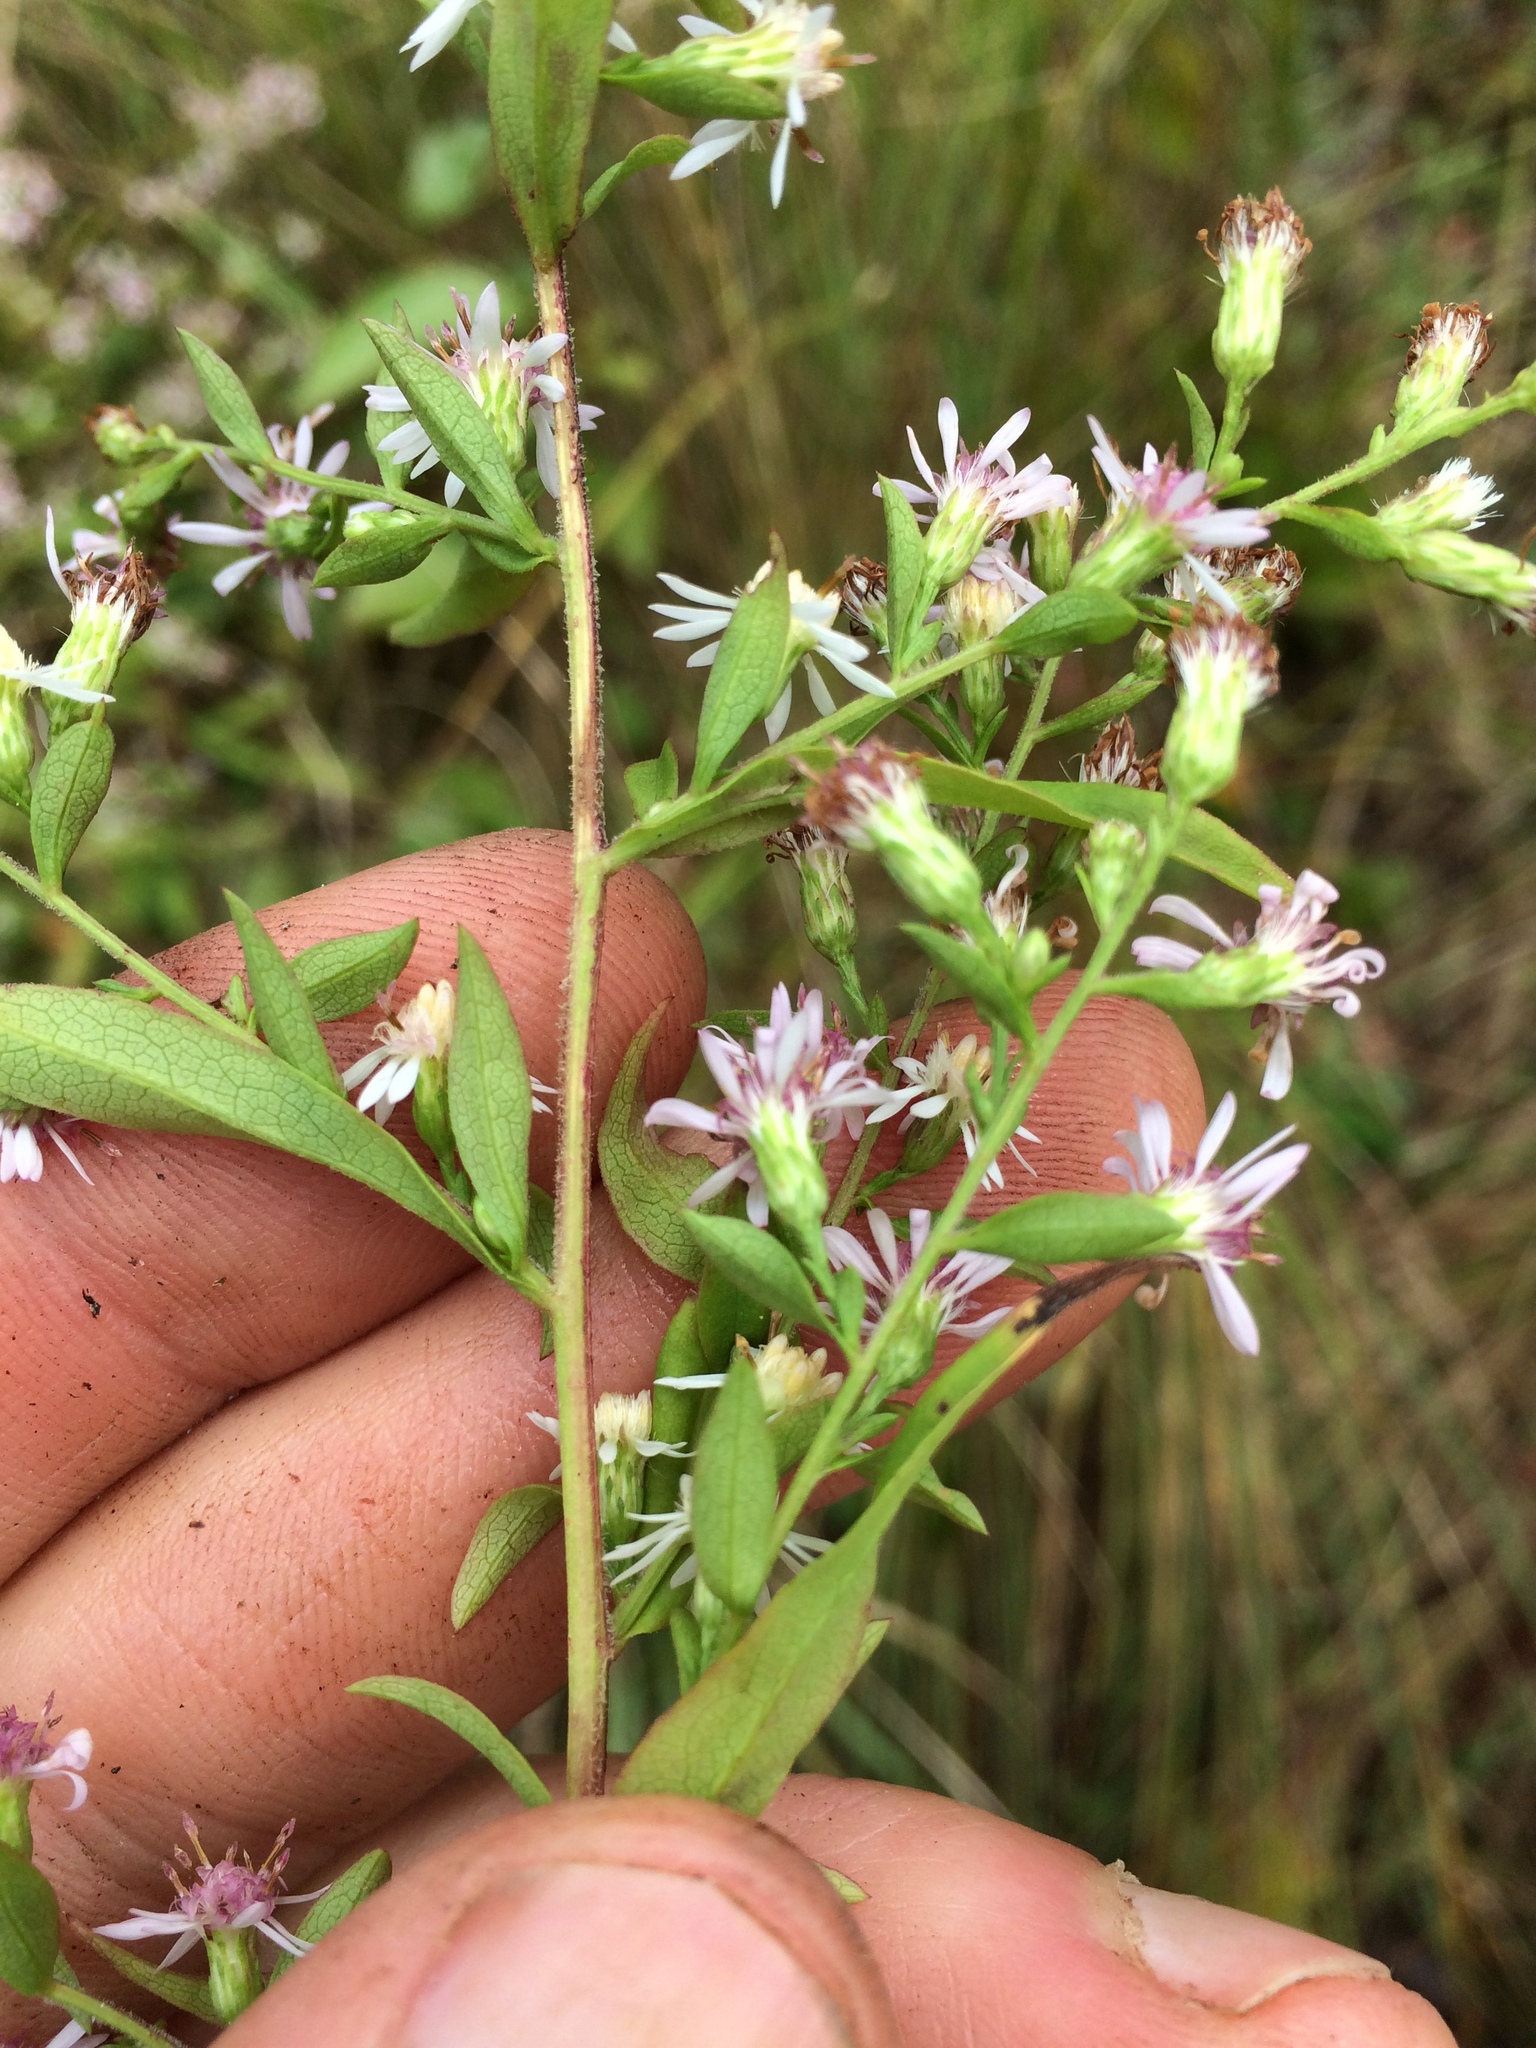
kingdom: Plantae
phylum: Tracheophyta
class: Magnoliopsida
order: Asterales
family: Asteraceae
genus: Symphyotrichum
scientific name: Symphyotrichum lateriflorum
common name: Calico aster
